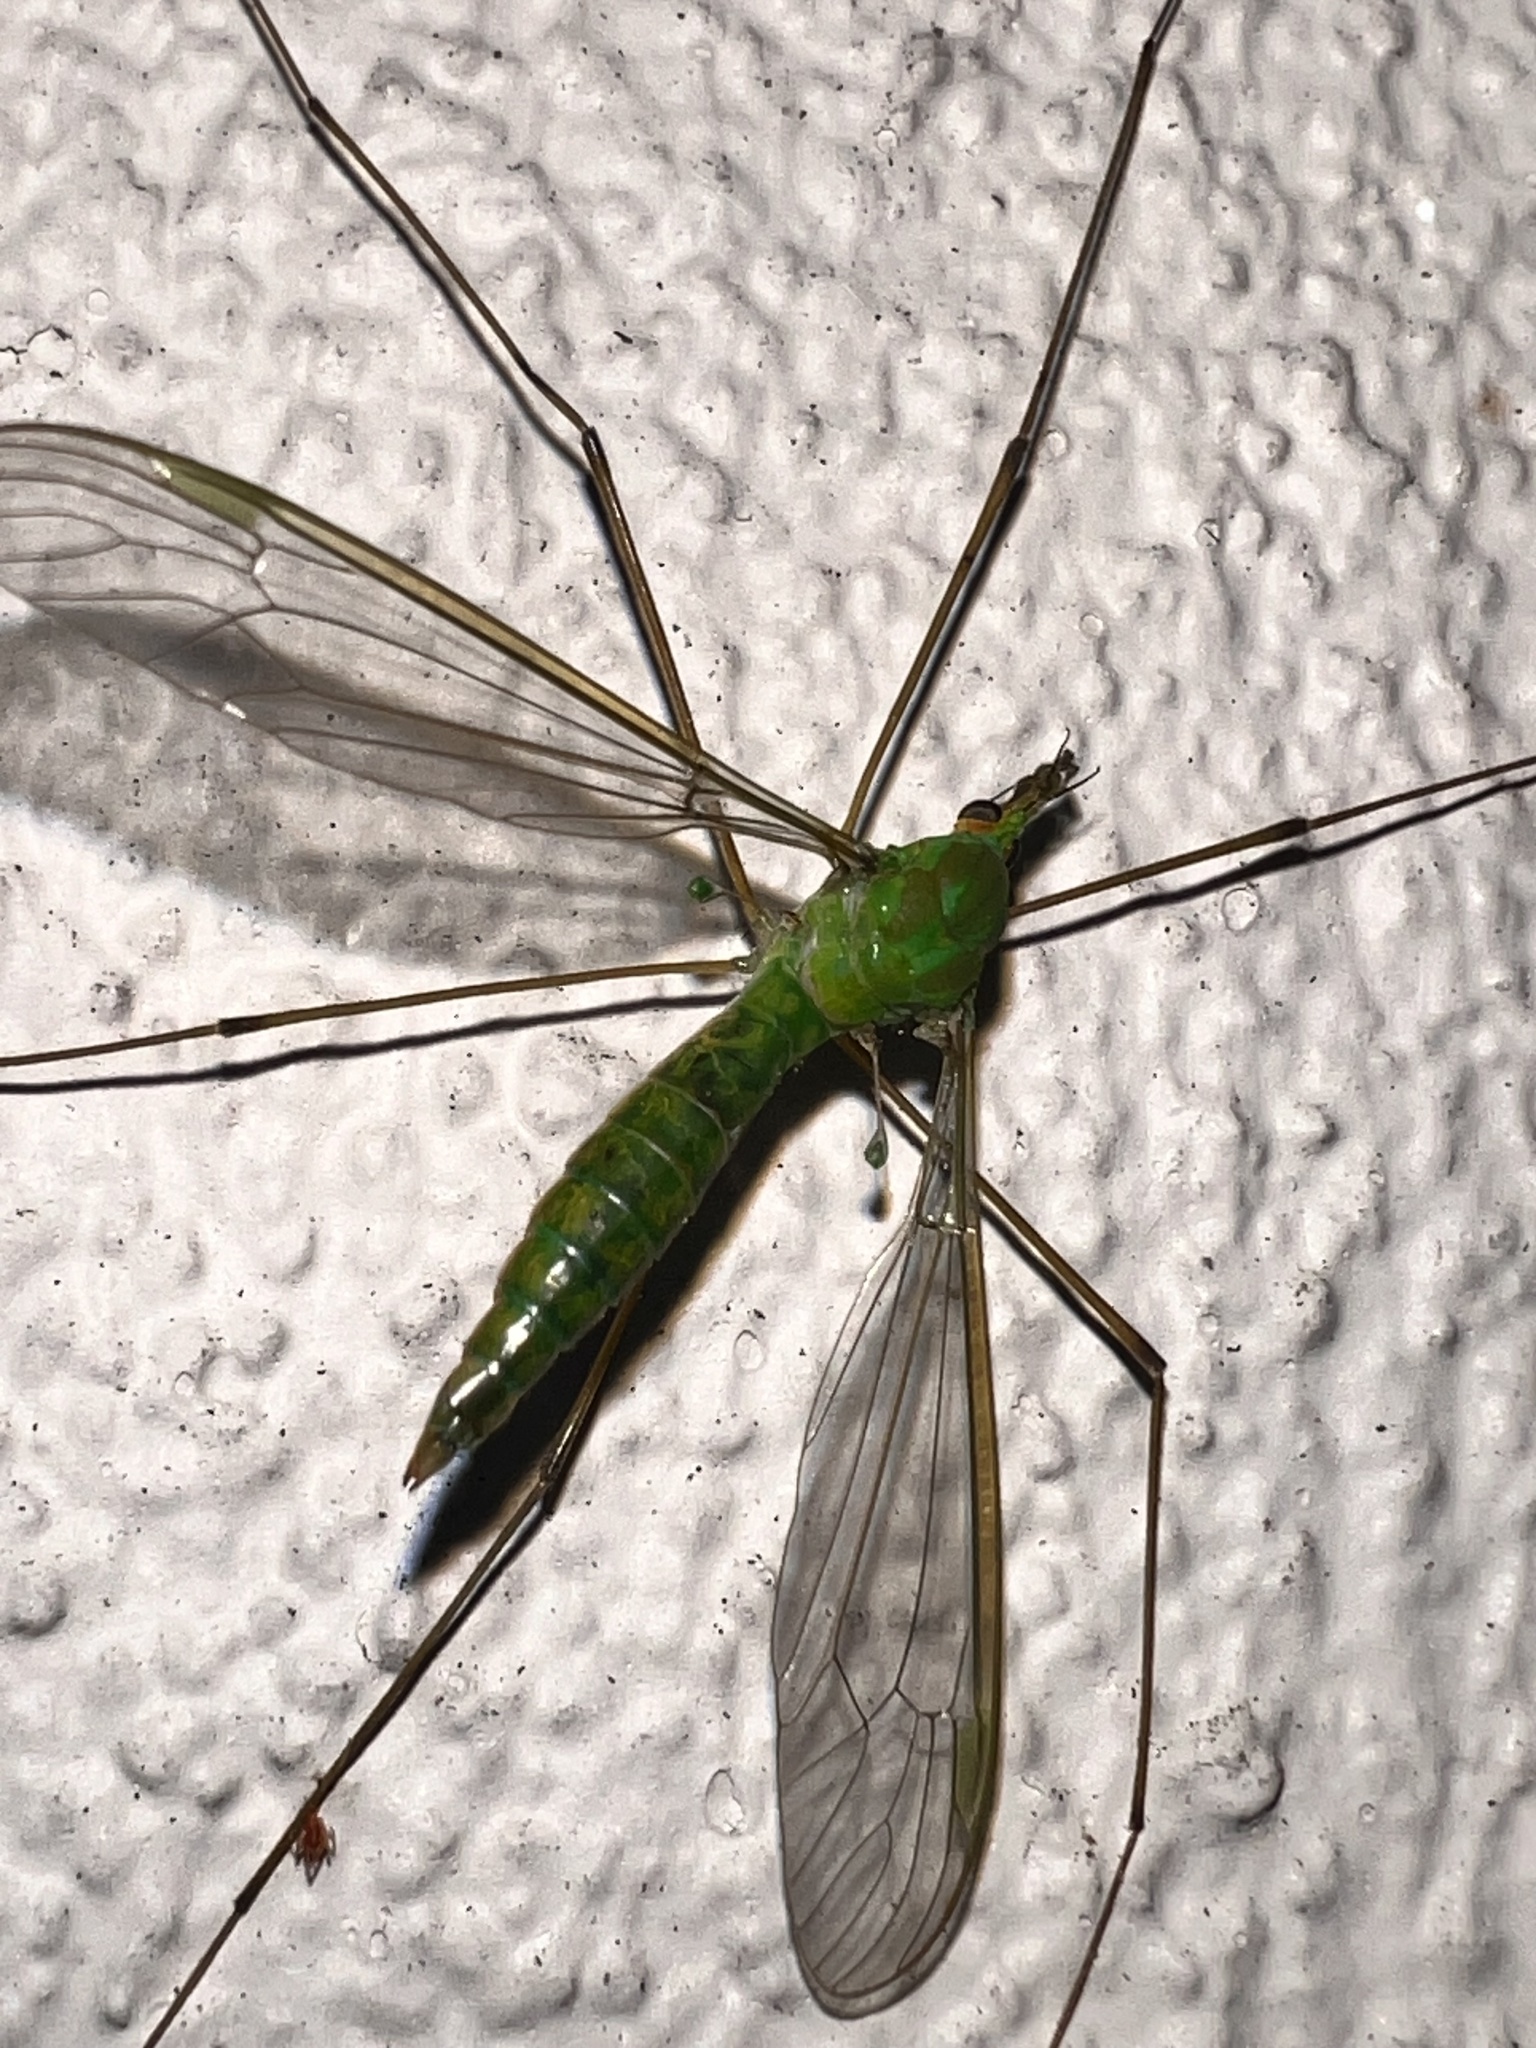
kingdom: Animalia
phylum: Arthropoda
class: Insecta
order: Diptera
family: Tipulidae
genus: Leptotarsus
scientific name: Leptotarsus virescens
